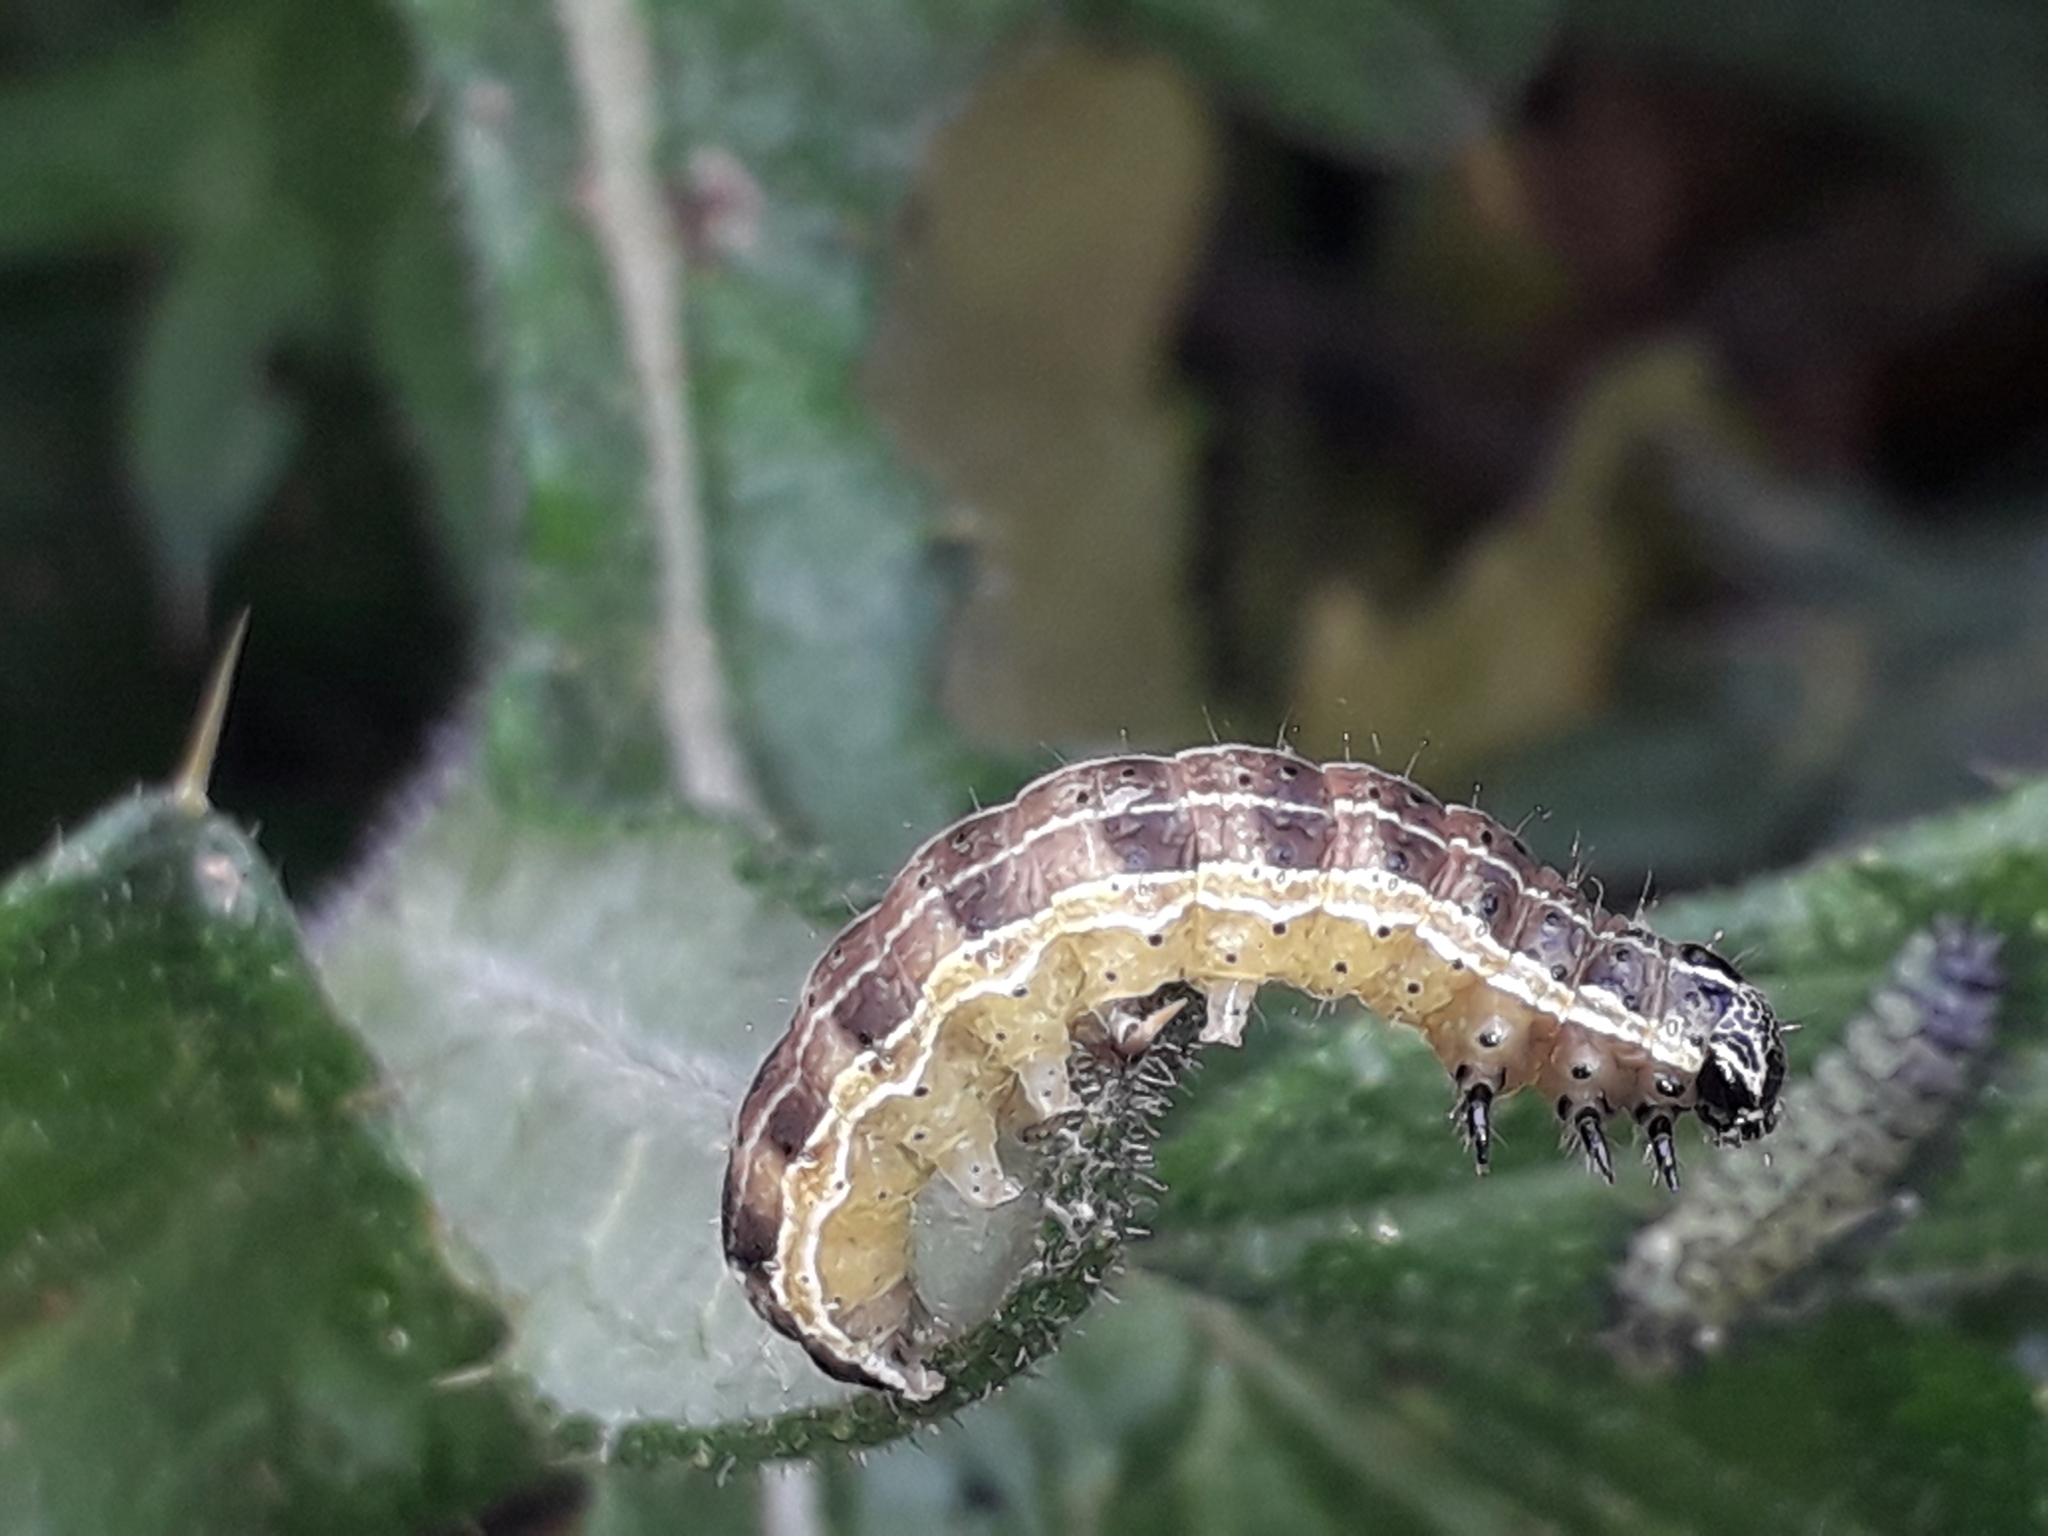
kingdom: Animalia
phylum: Arthropoda
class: Insecta
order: Lepidoptera
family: Noctuidae
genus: Orthosia
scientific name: Orthosia cruda
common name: Small quaker
